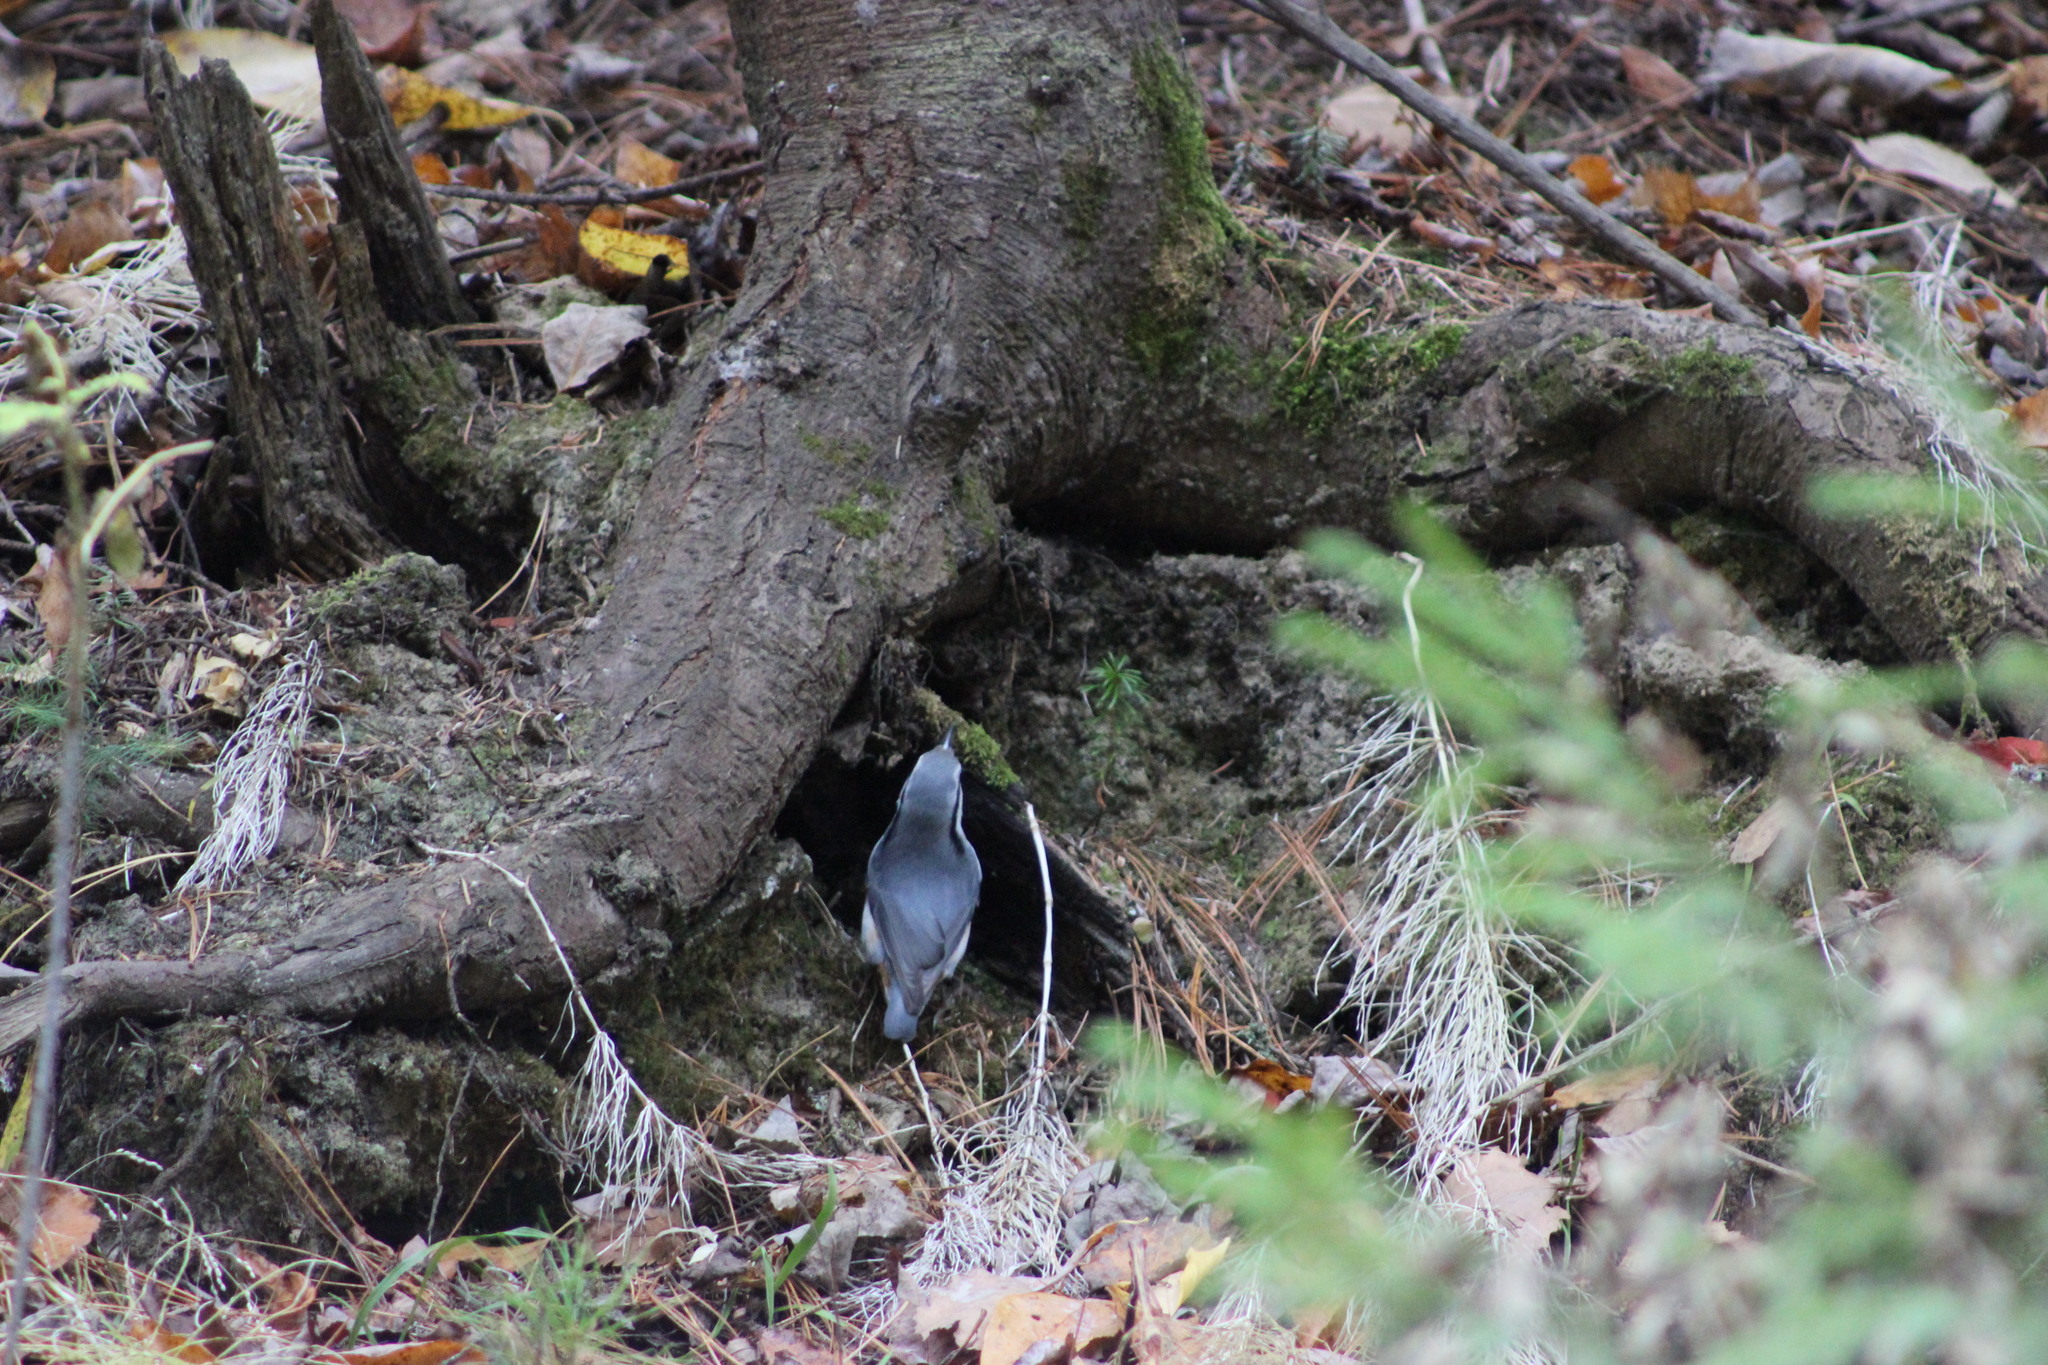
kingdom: Animalia
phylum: Chordata
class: Aves
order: Passeriformes
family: Sittidae
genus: Sitta
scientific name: Sitta europaea
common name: Eurasian nuthatch
